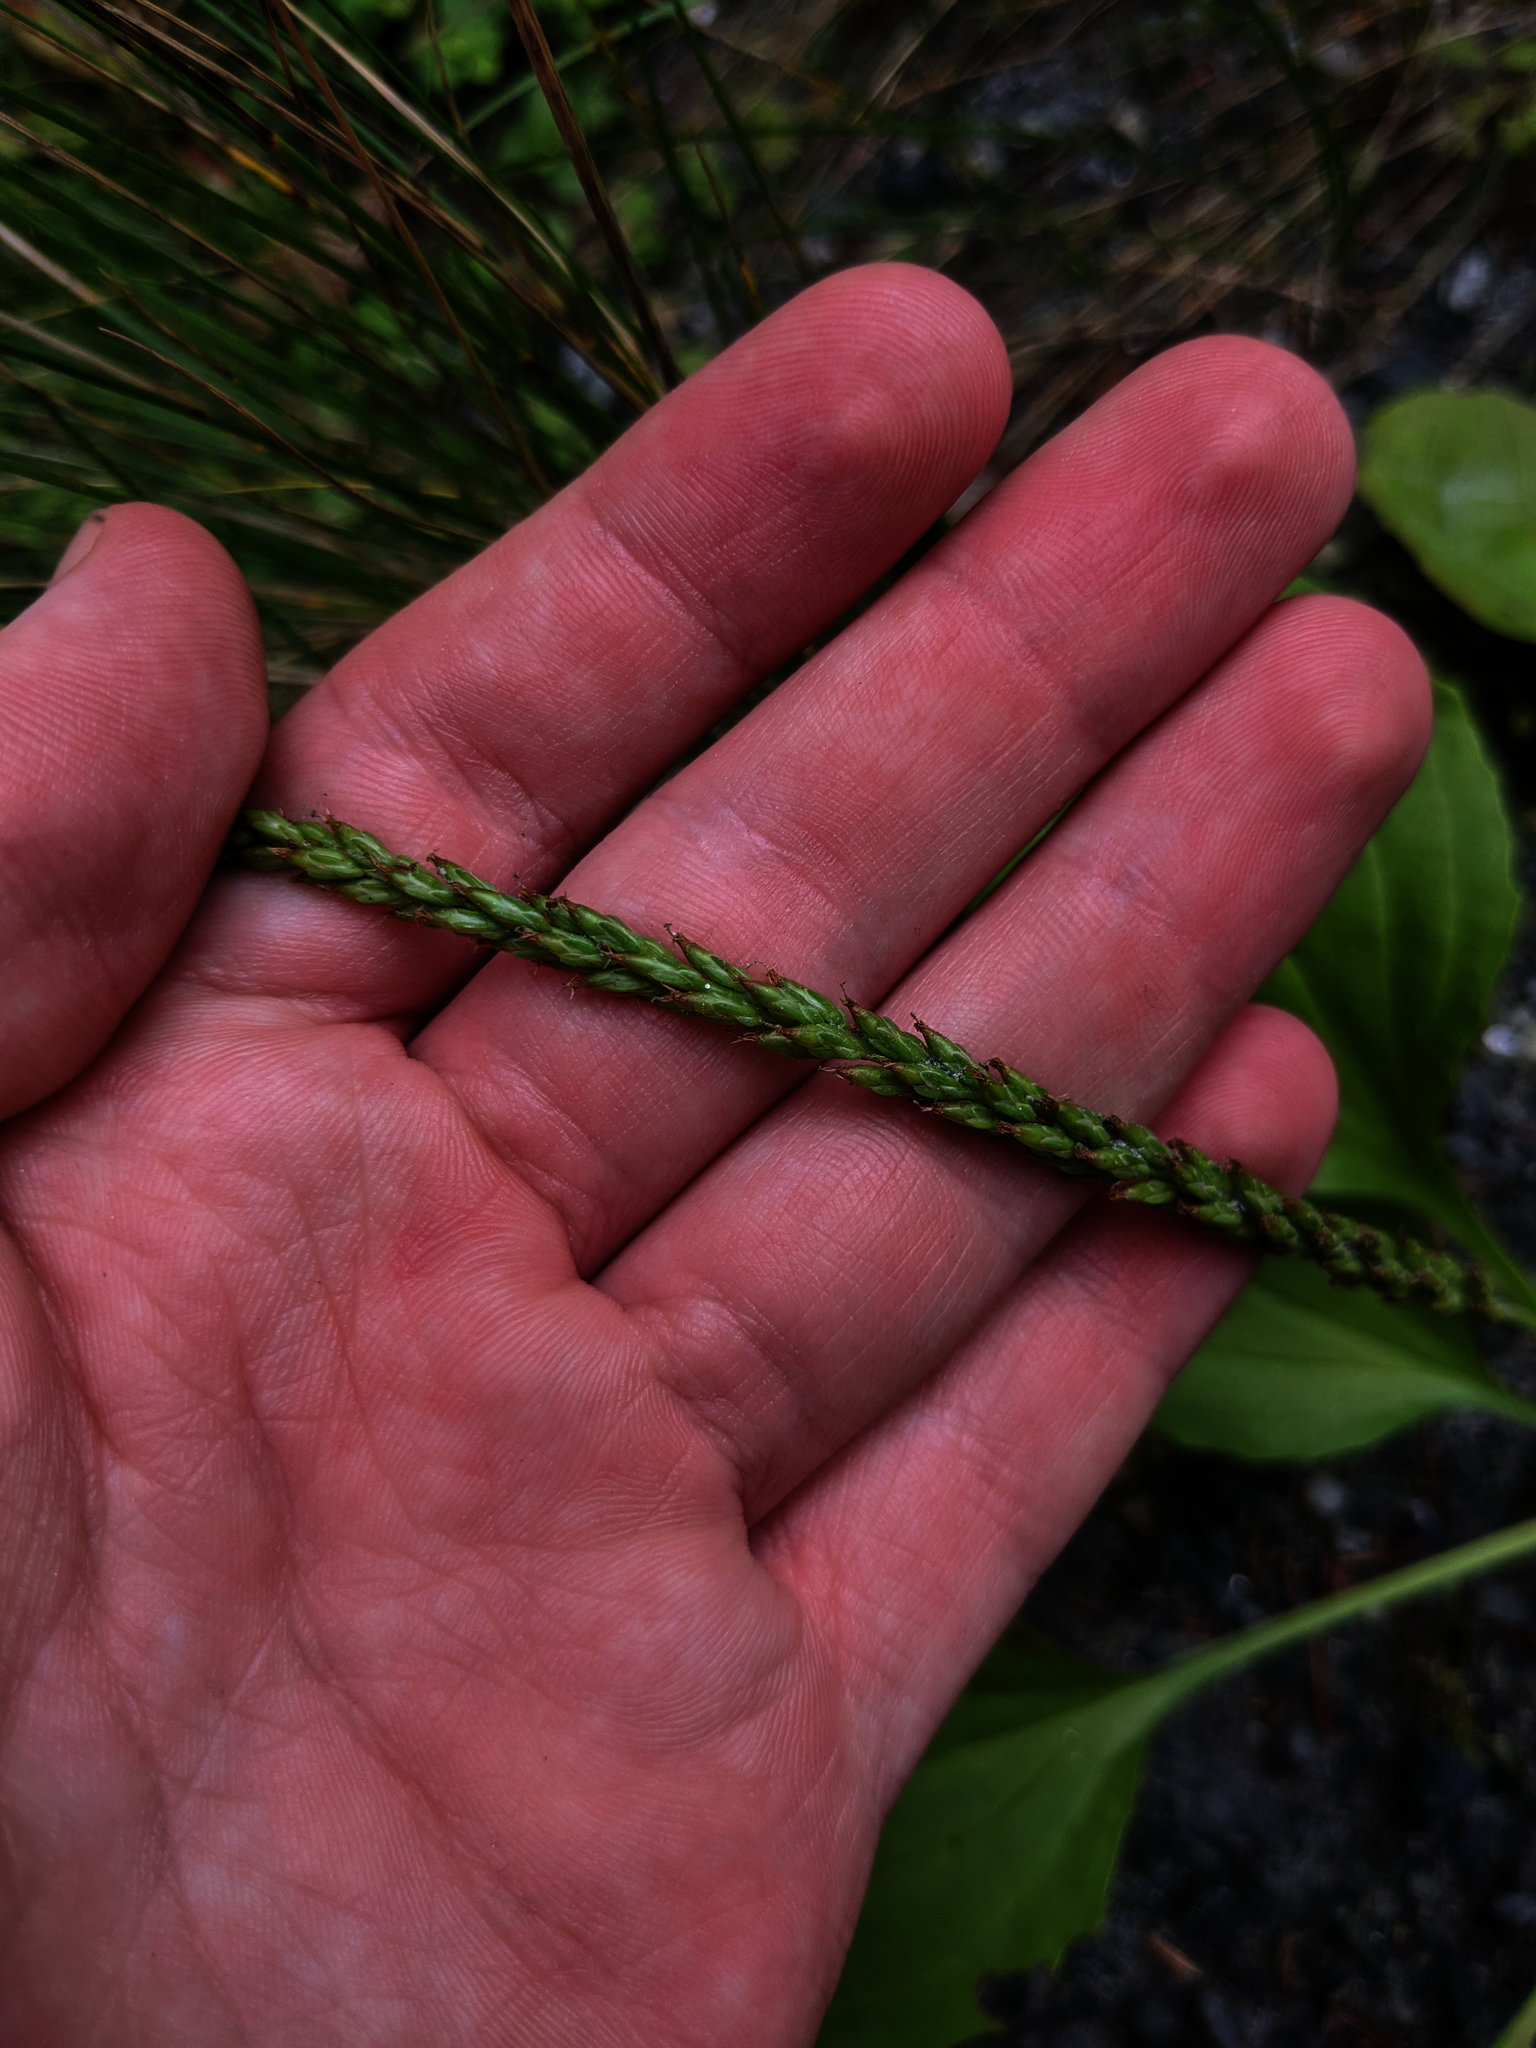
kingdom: Plantae
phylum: Tracheophyta
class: Magnoliopsida
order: Lamiales
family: Plantaginaceae
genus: Plantago
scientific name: Plantago major
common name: Common plantain
